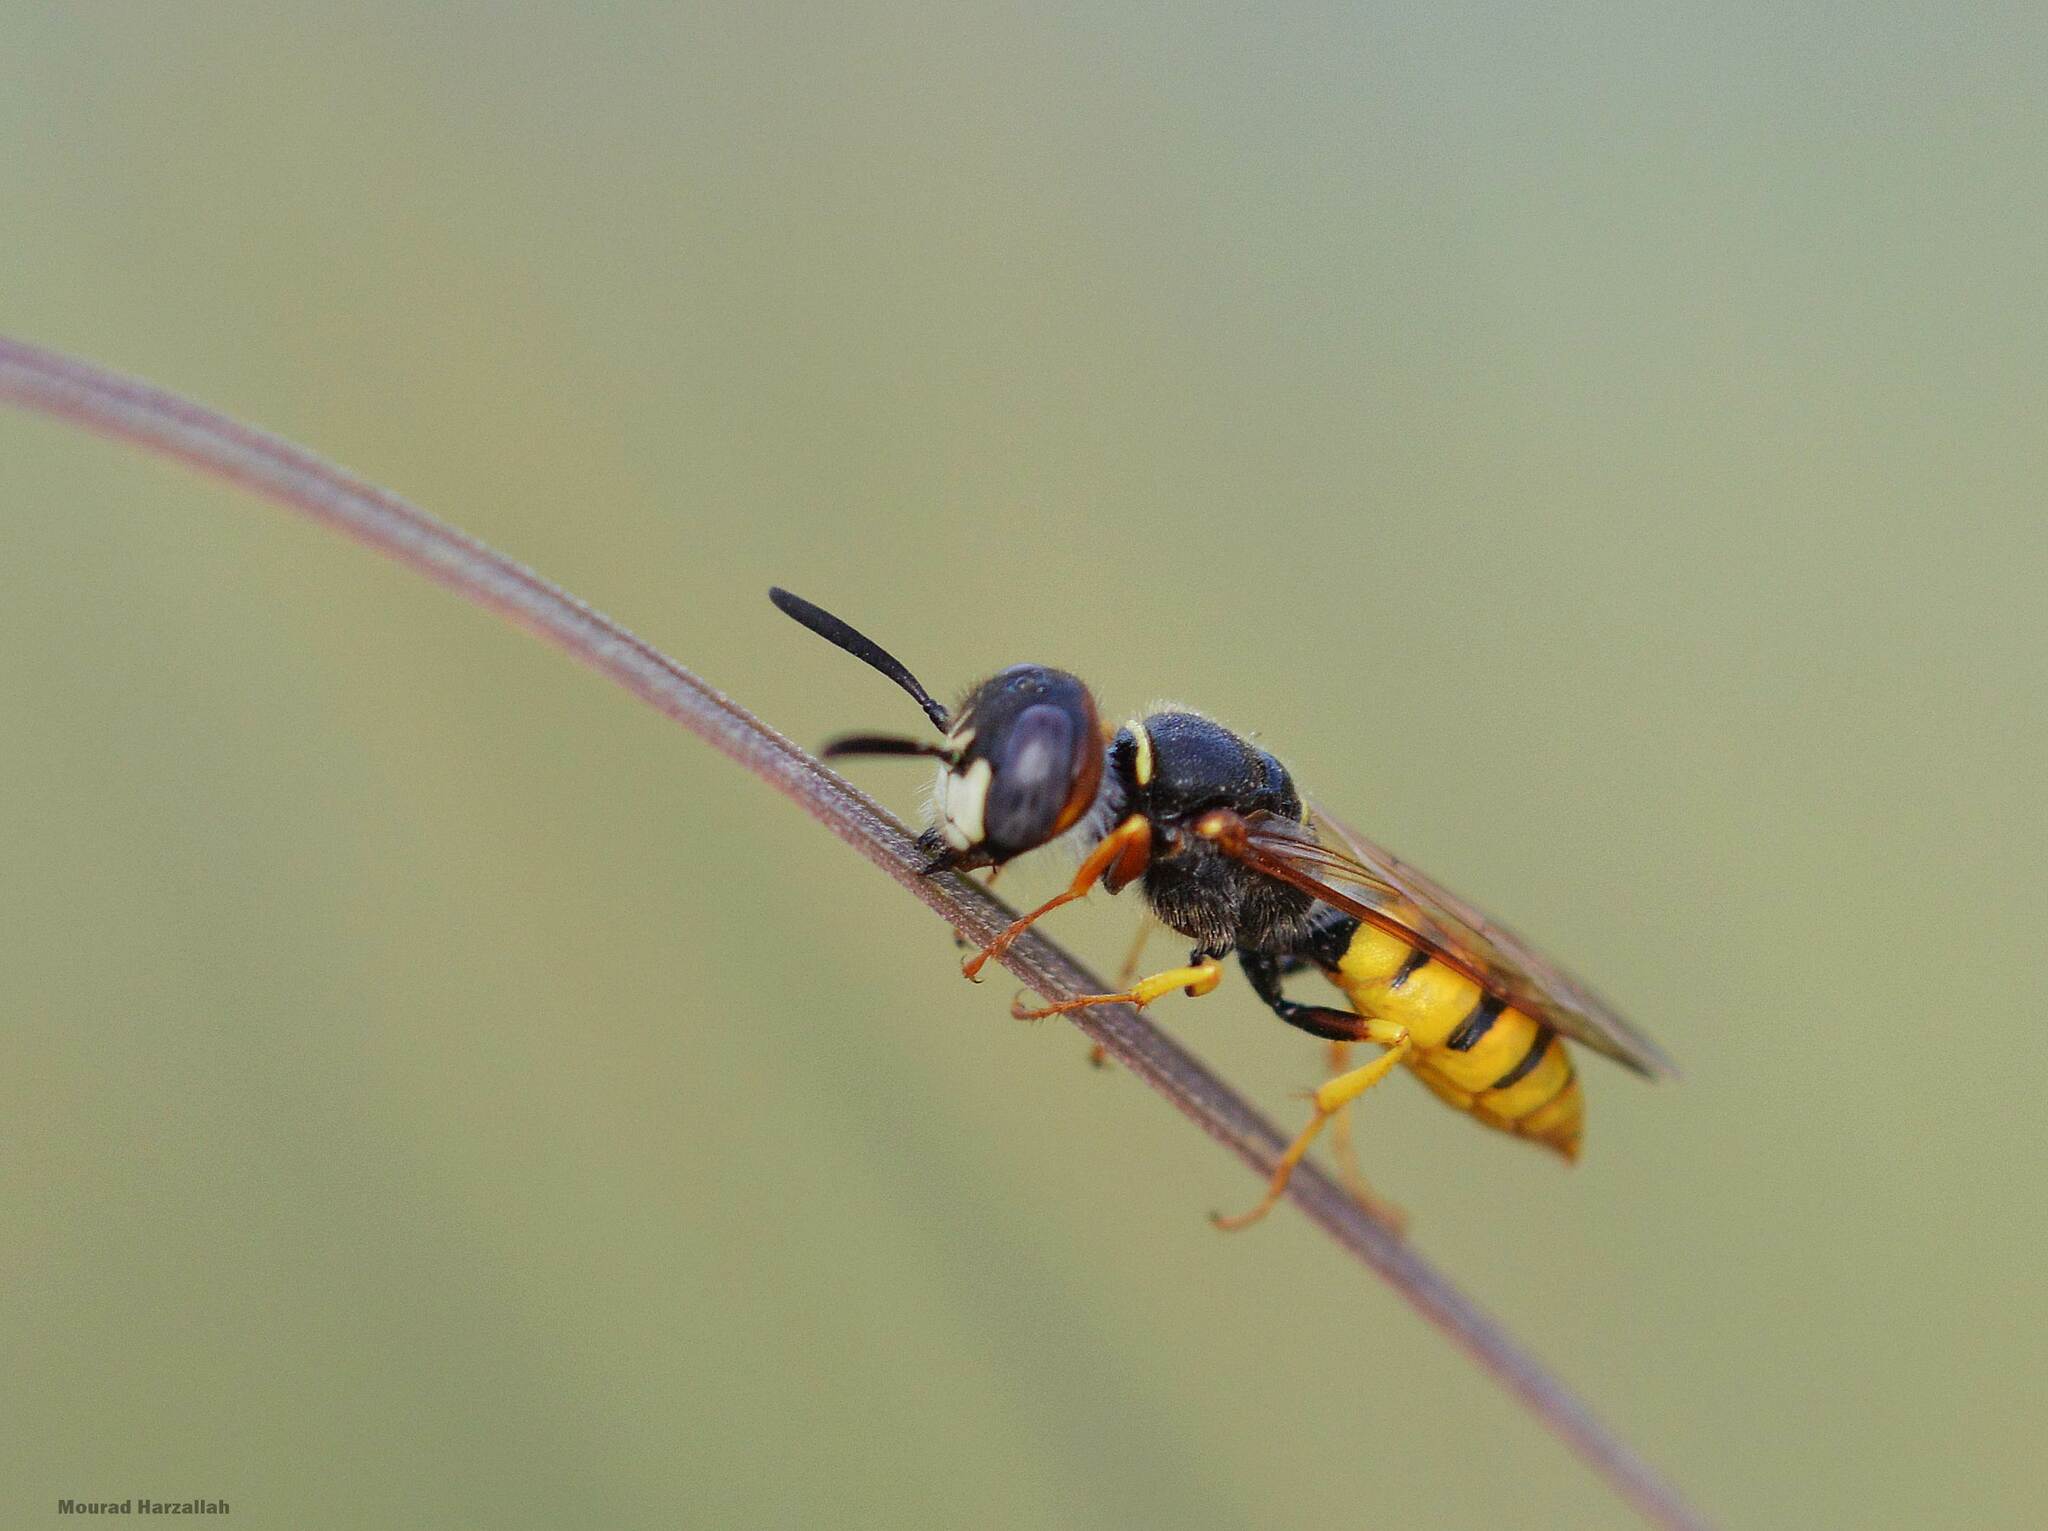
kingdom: Animalia
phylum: Arthropoda
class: Insecta
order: Hymenoptera
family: Crabronidae
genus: Philanthus
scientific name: Philanthus triangulum
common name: Bee wolf
